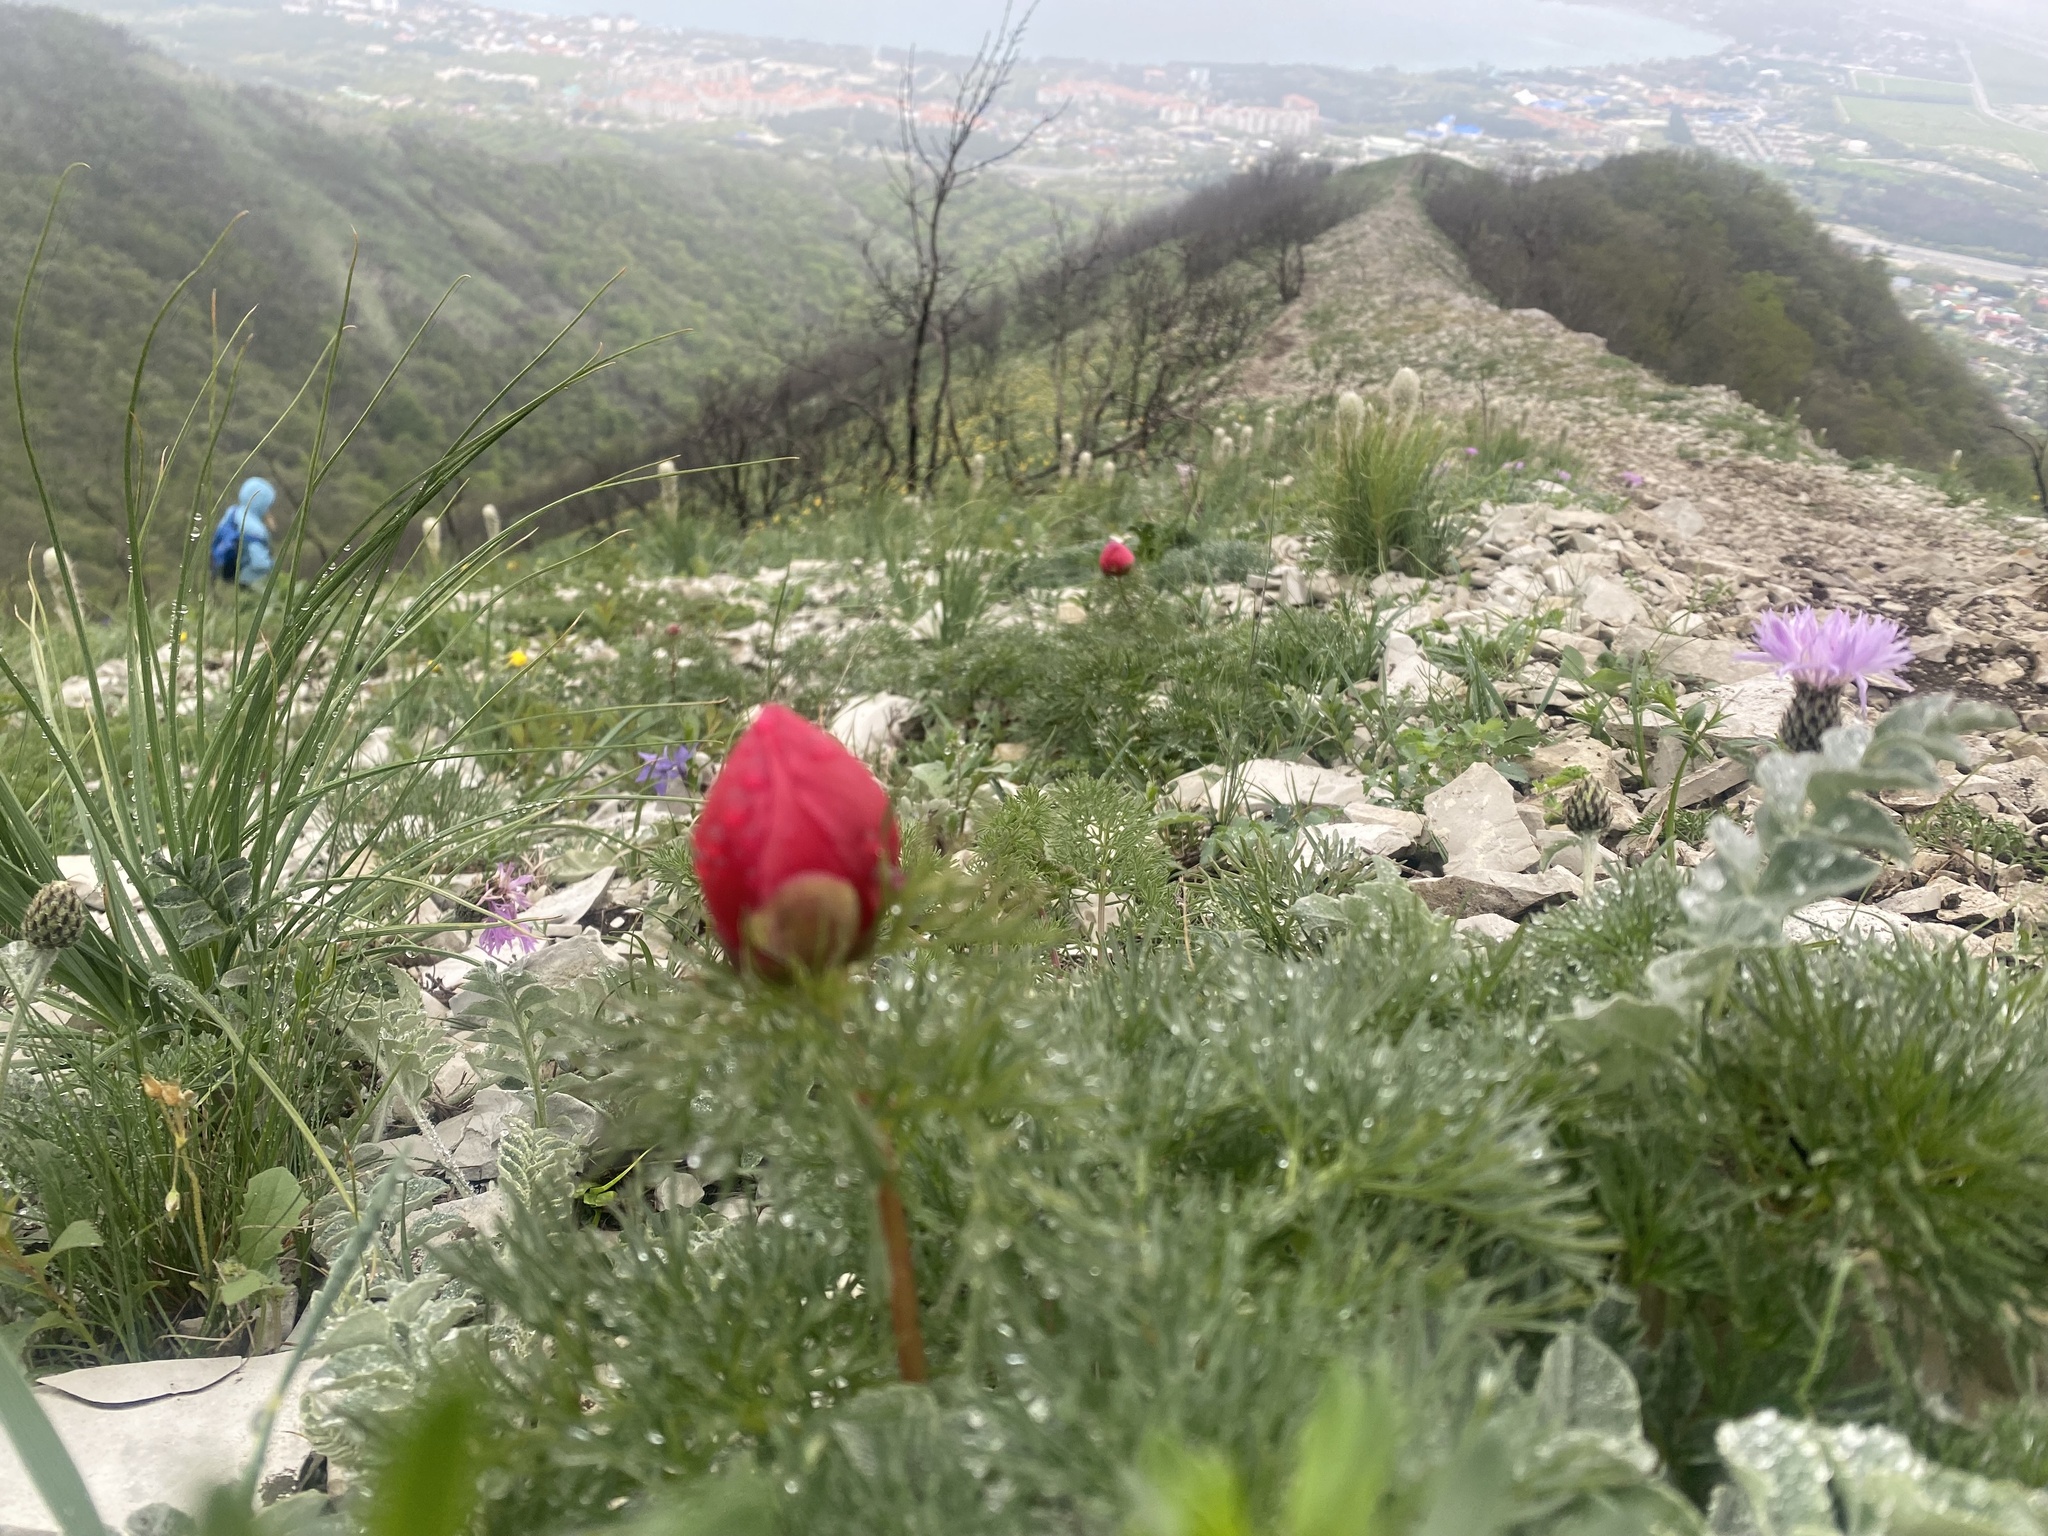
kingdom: Plantae
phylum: Tracheophyta
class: Magnoliopsida
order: Saxifragales
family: Paeoniaceae
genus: Paeonia
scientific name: Paeonia tenuifolia
